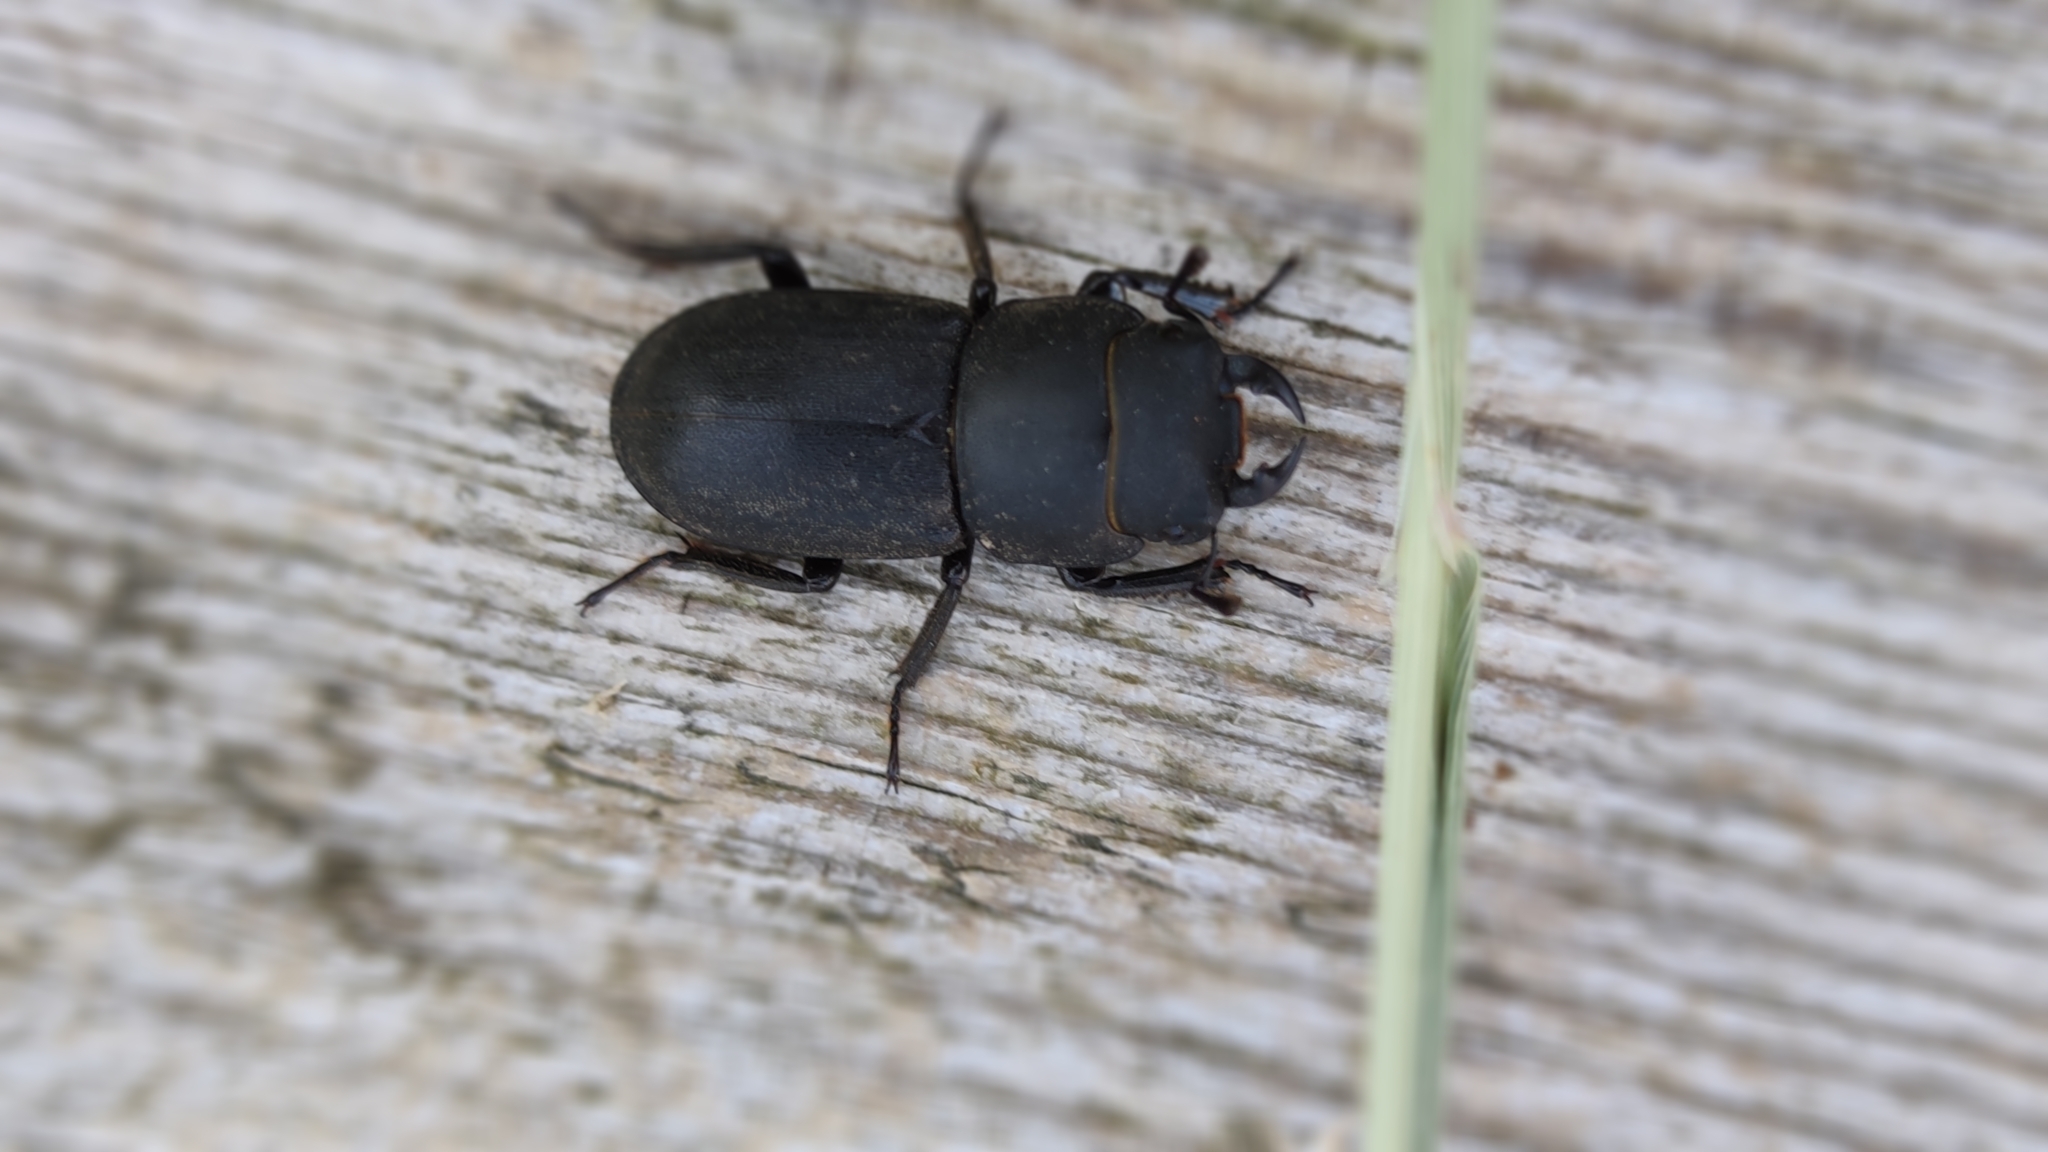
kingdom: Animalia
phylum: Arthropoda
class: Insecta
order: Coleoptera
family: Lucanidae
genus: Dorcus
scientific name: Dorcus parallelipipedus
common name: Lesser stag beetle
